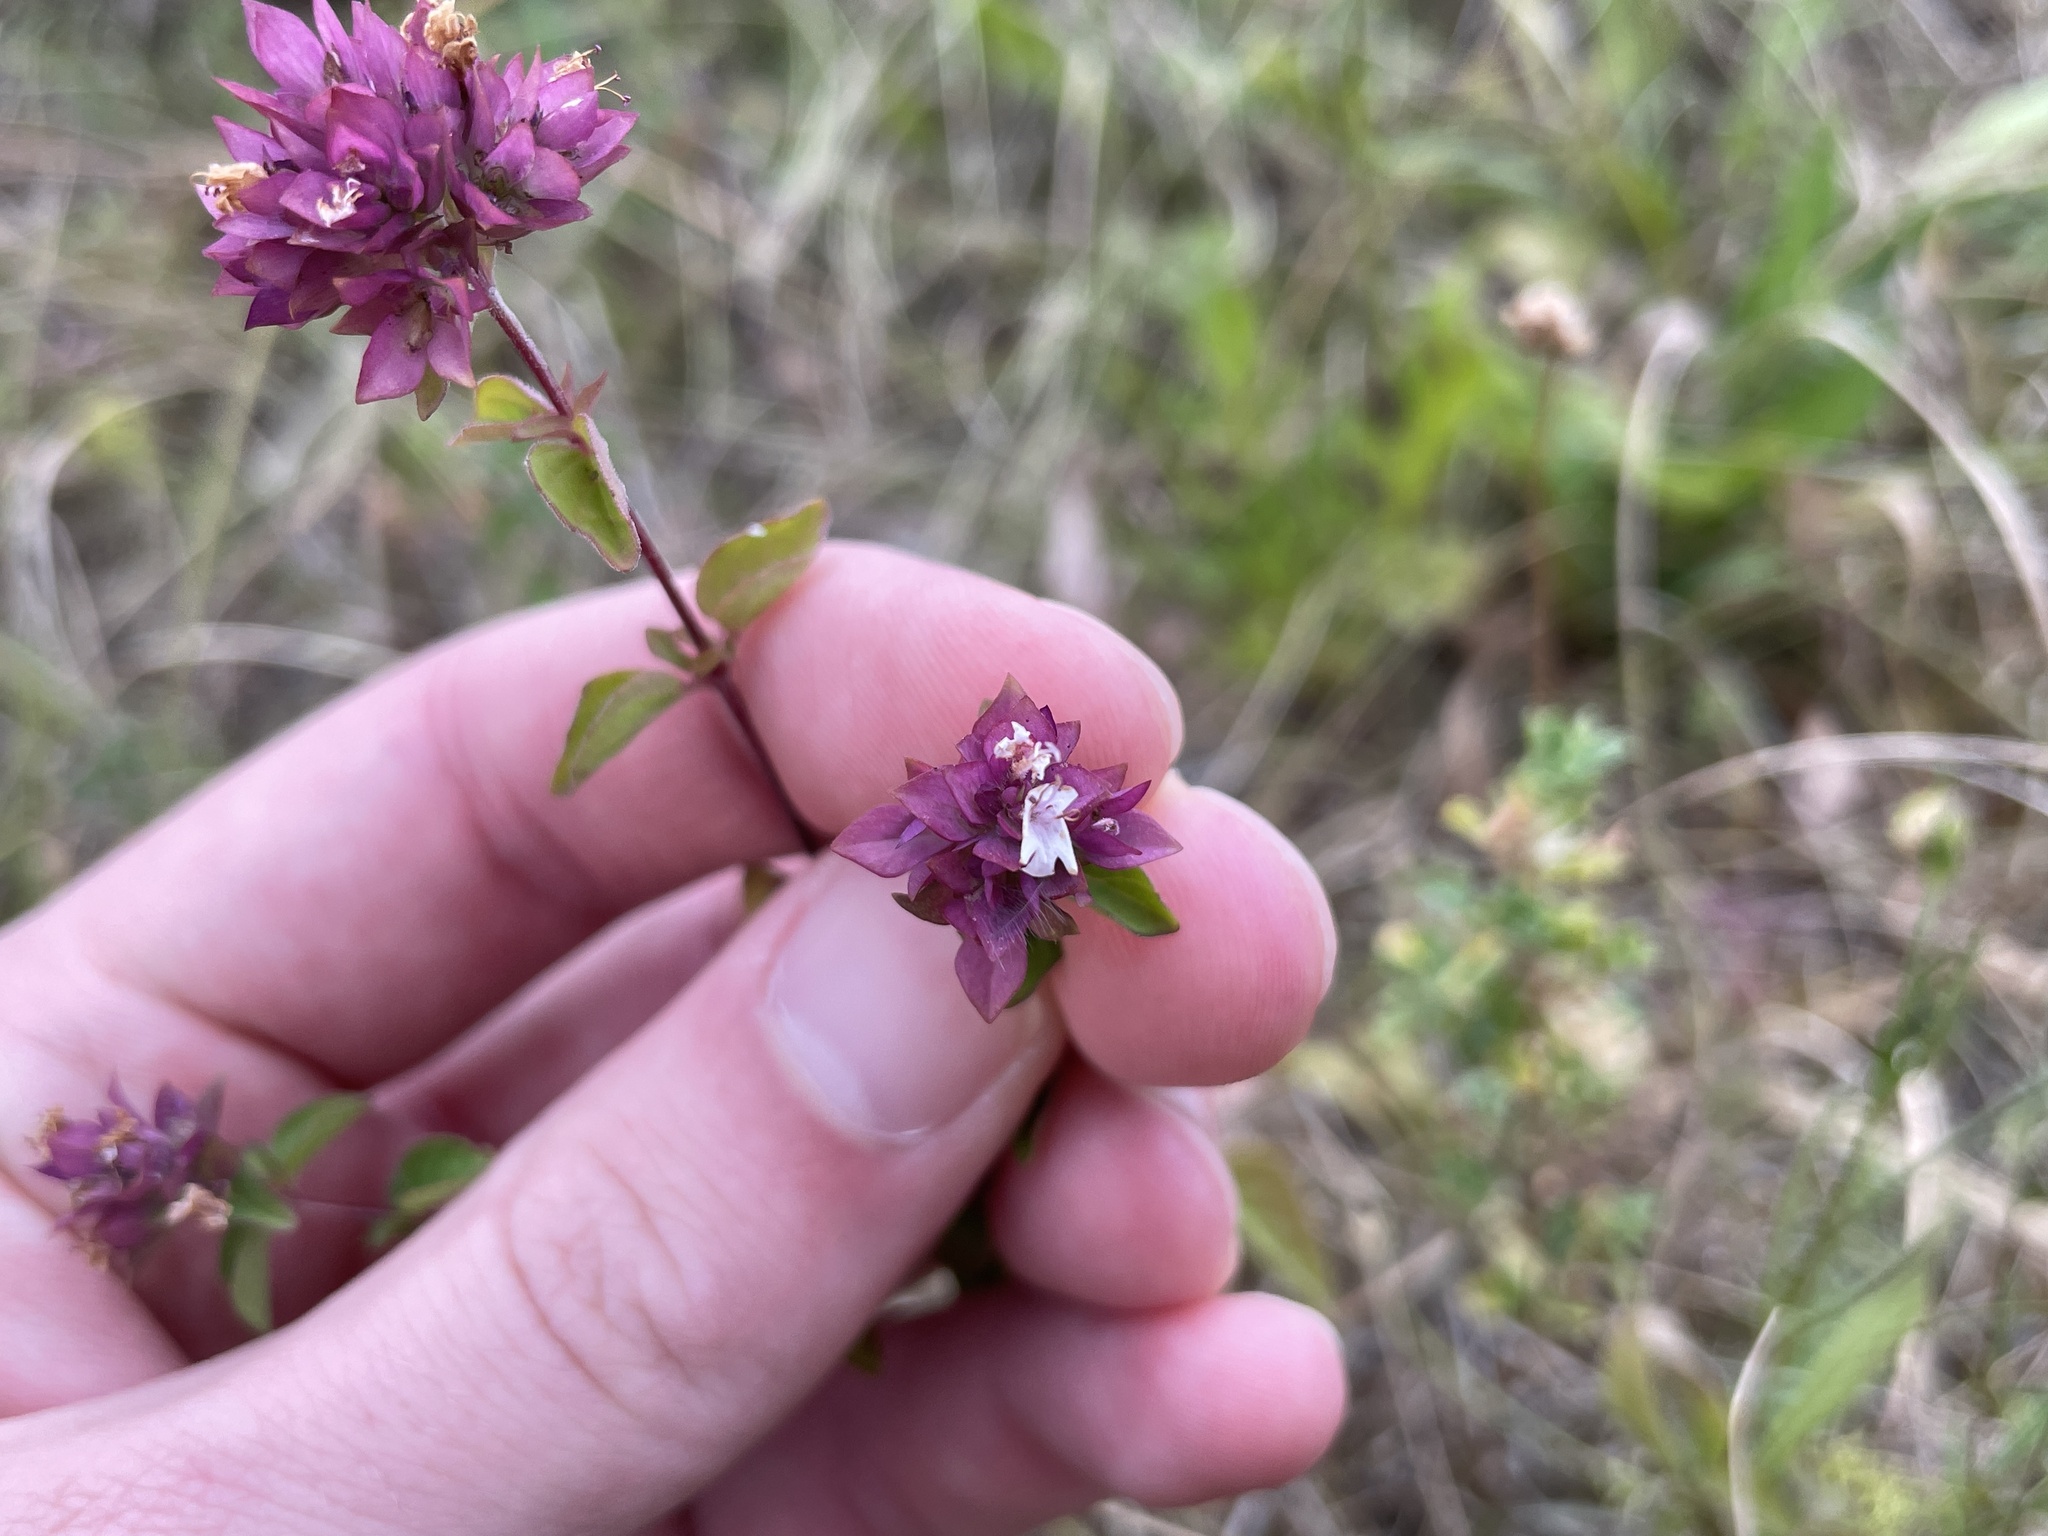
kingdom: Plantae
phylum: Tracheophyta
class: Magnoliopsida
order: Lamiales
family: Lamiaceae
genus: Origanum
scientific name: Origanum vulgare
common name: Wild marjoram
